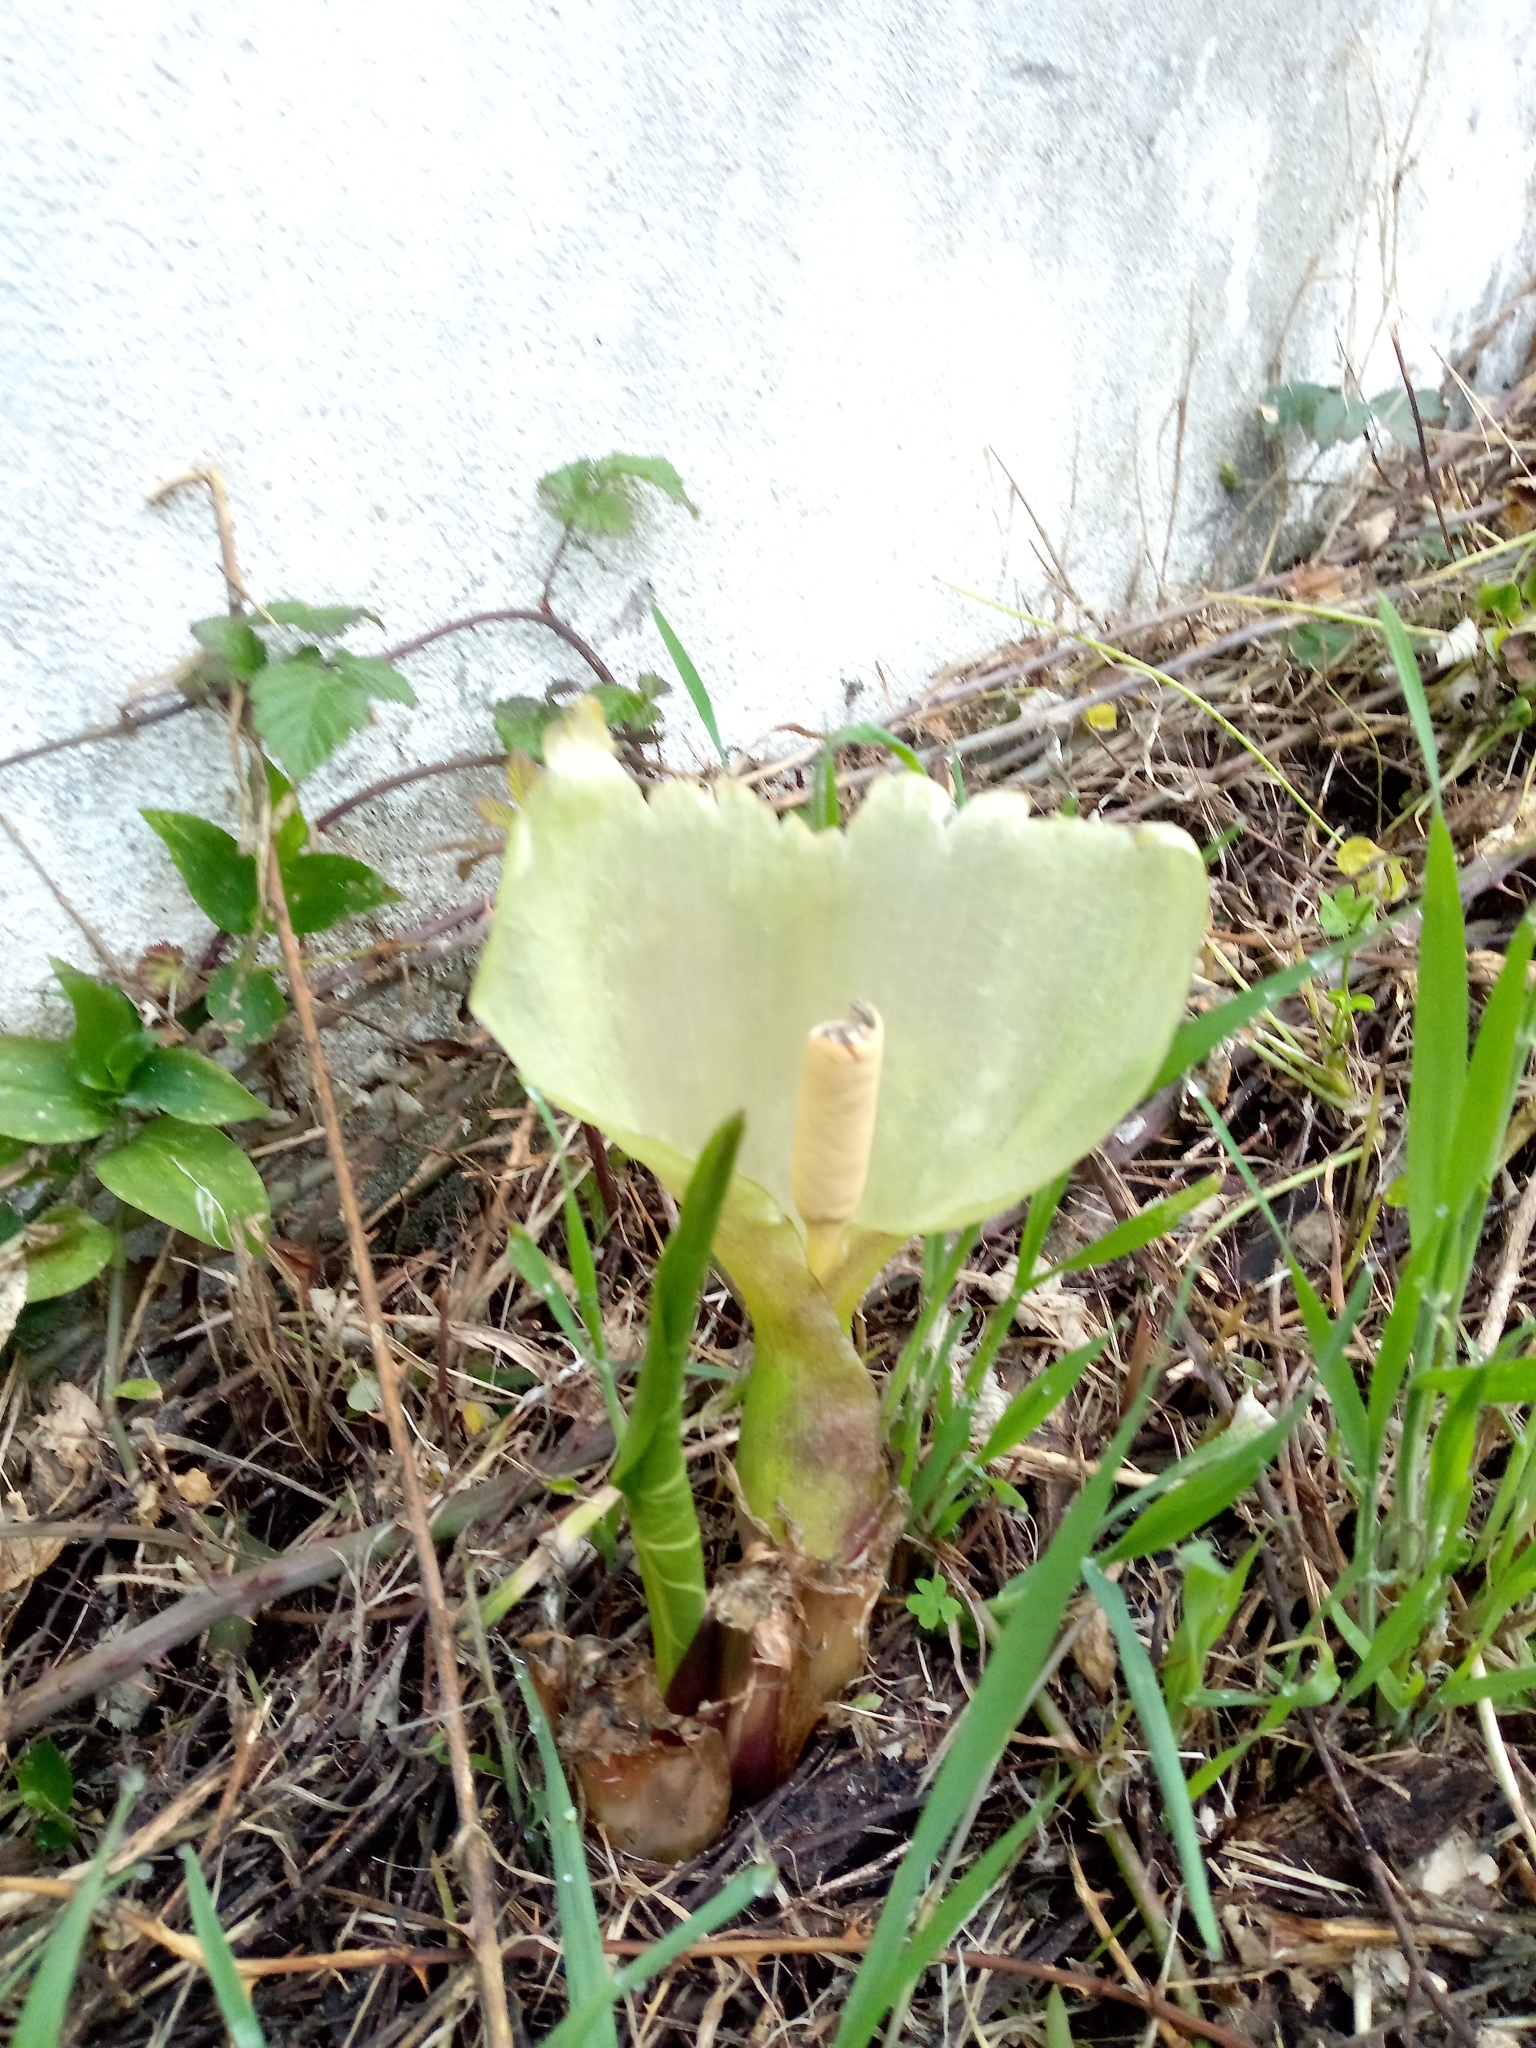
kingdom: Plantae
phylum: Tracheophyta
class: Liliopsida
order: Alismatales
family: Araceae
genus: Arum
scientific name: Arum italicum
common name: Italian lords-and-ladies
